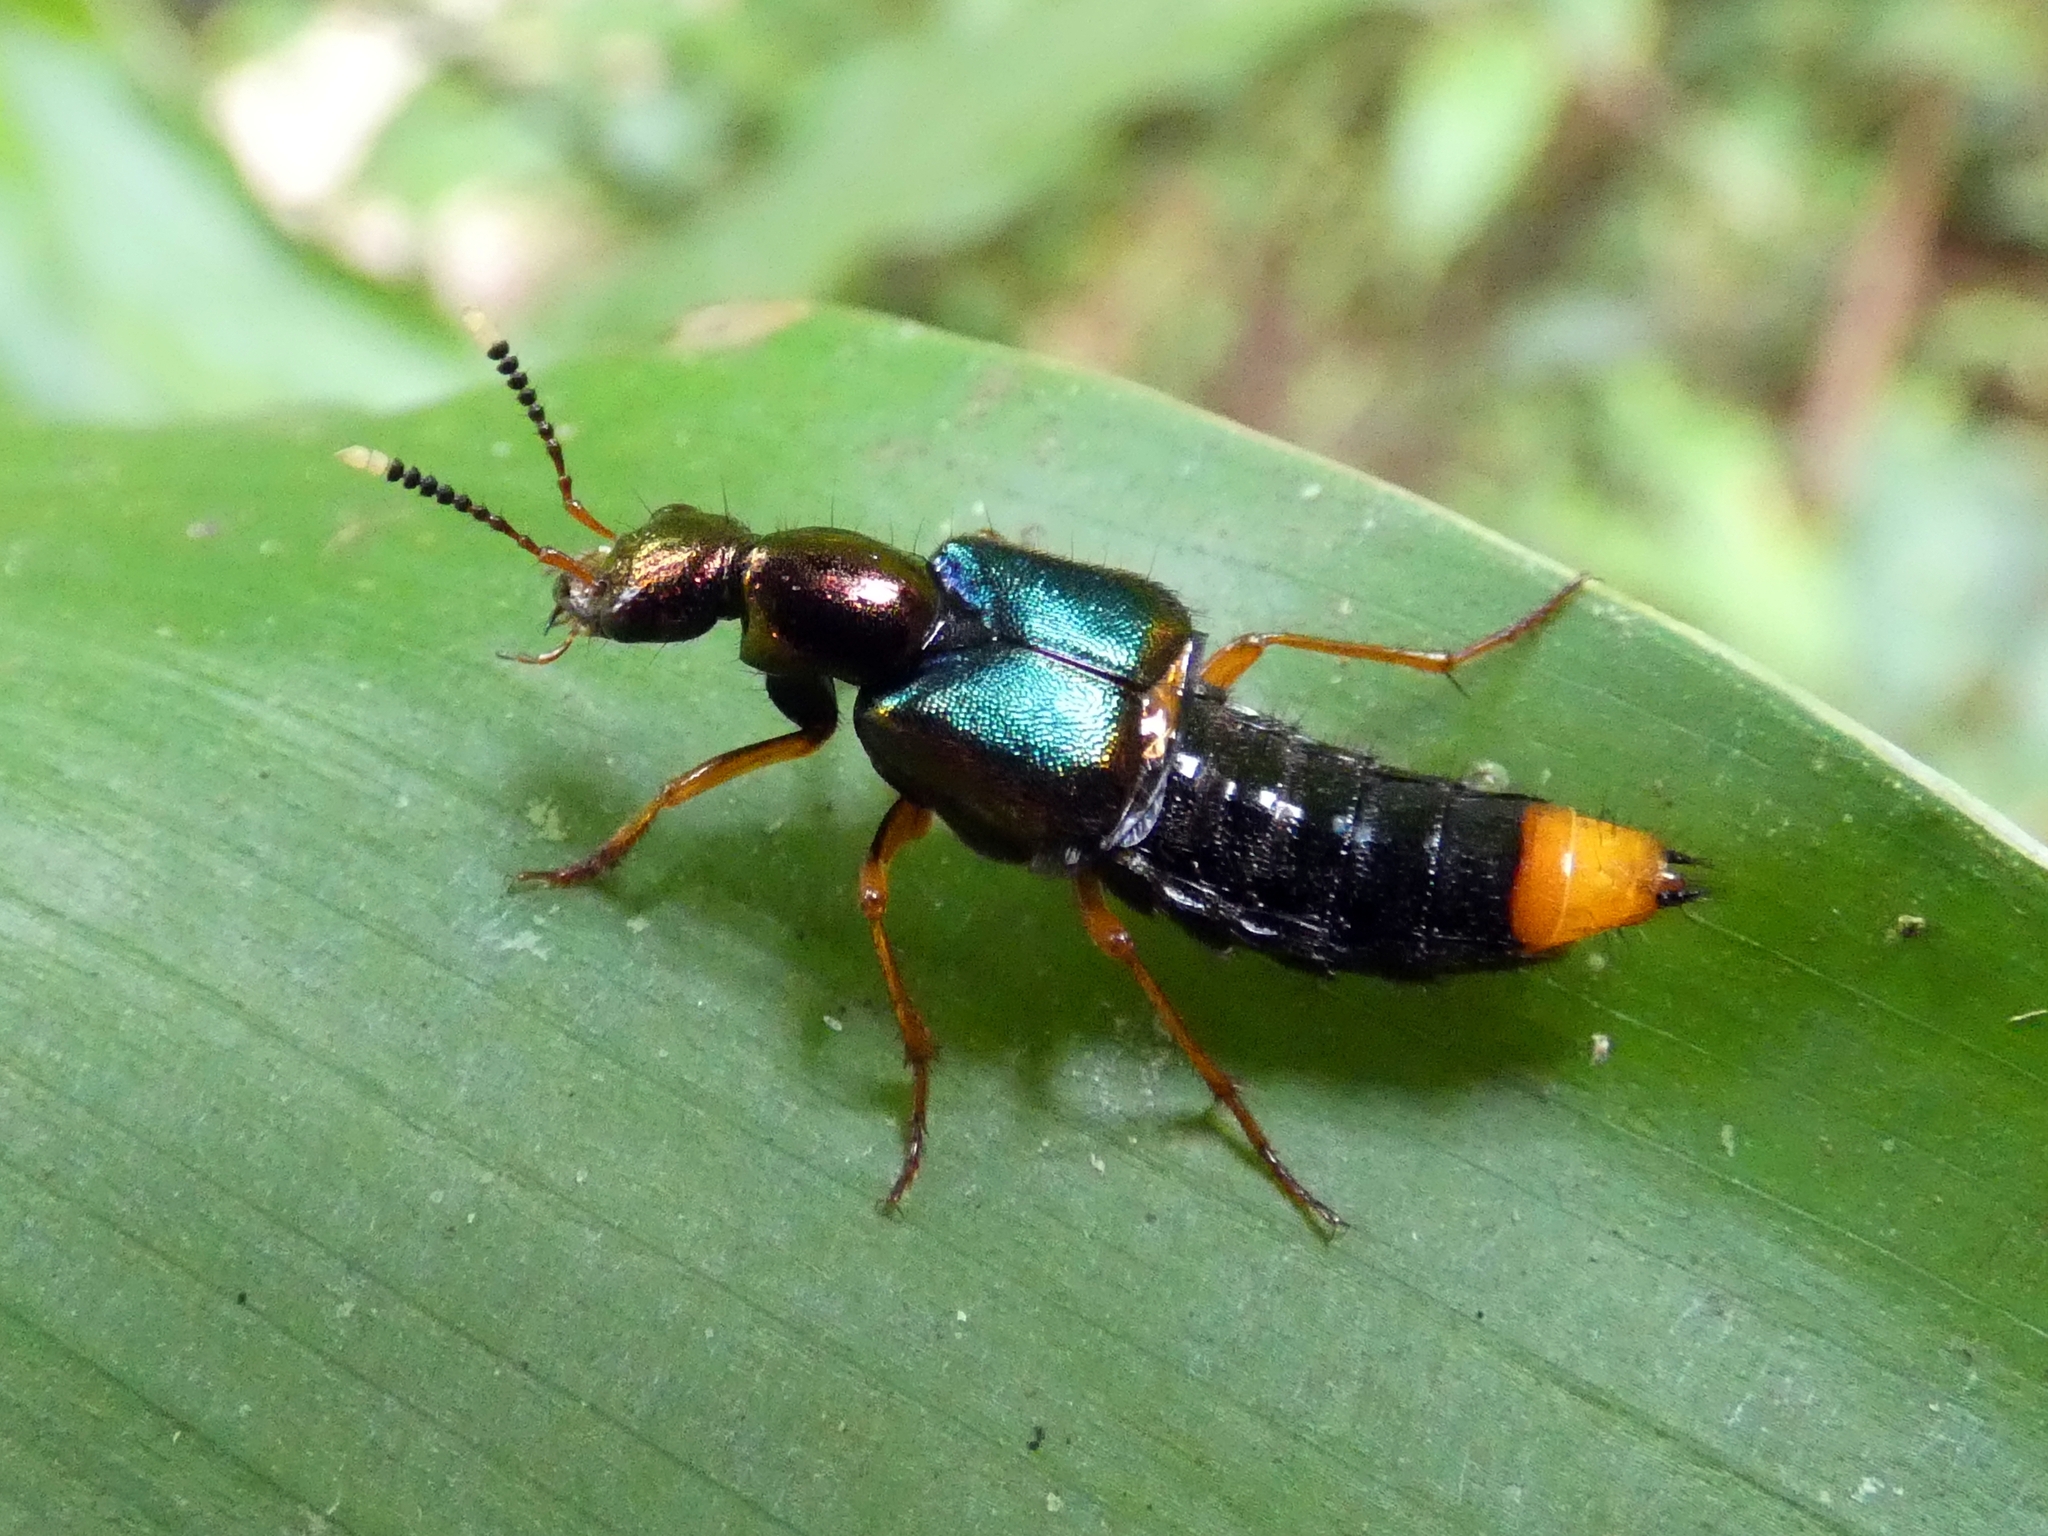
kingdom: Animalia
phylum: Arthropoda
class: Insecta
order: Coleoptera
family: Staphylinidae
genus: Actinus
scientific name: Actinus macleayi
